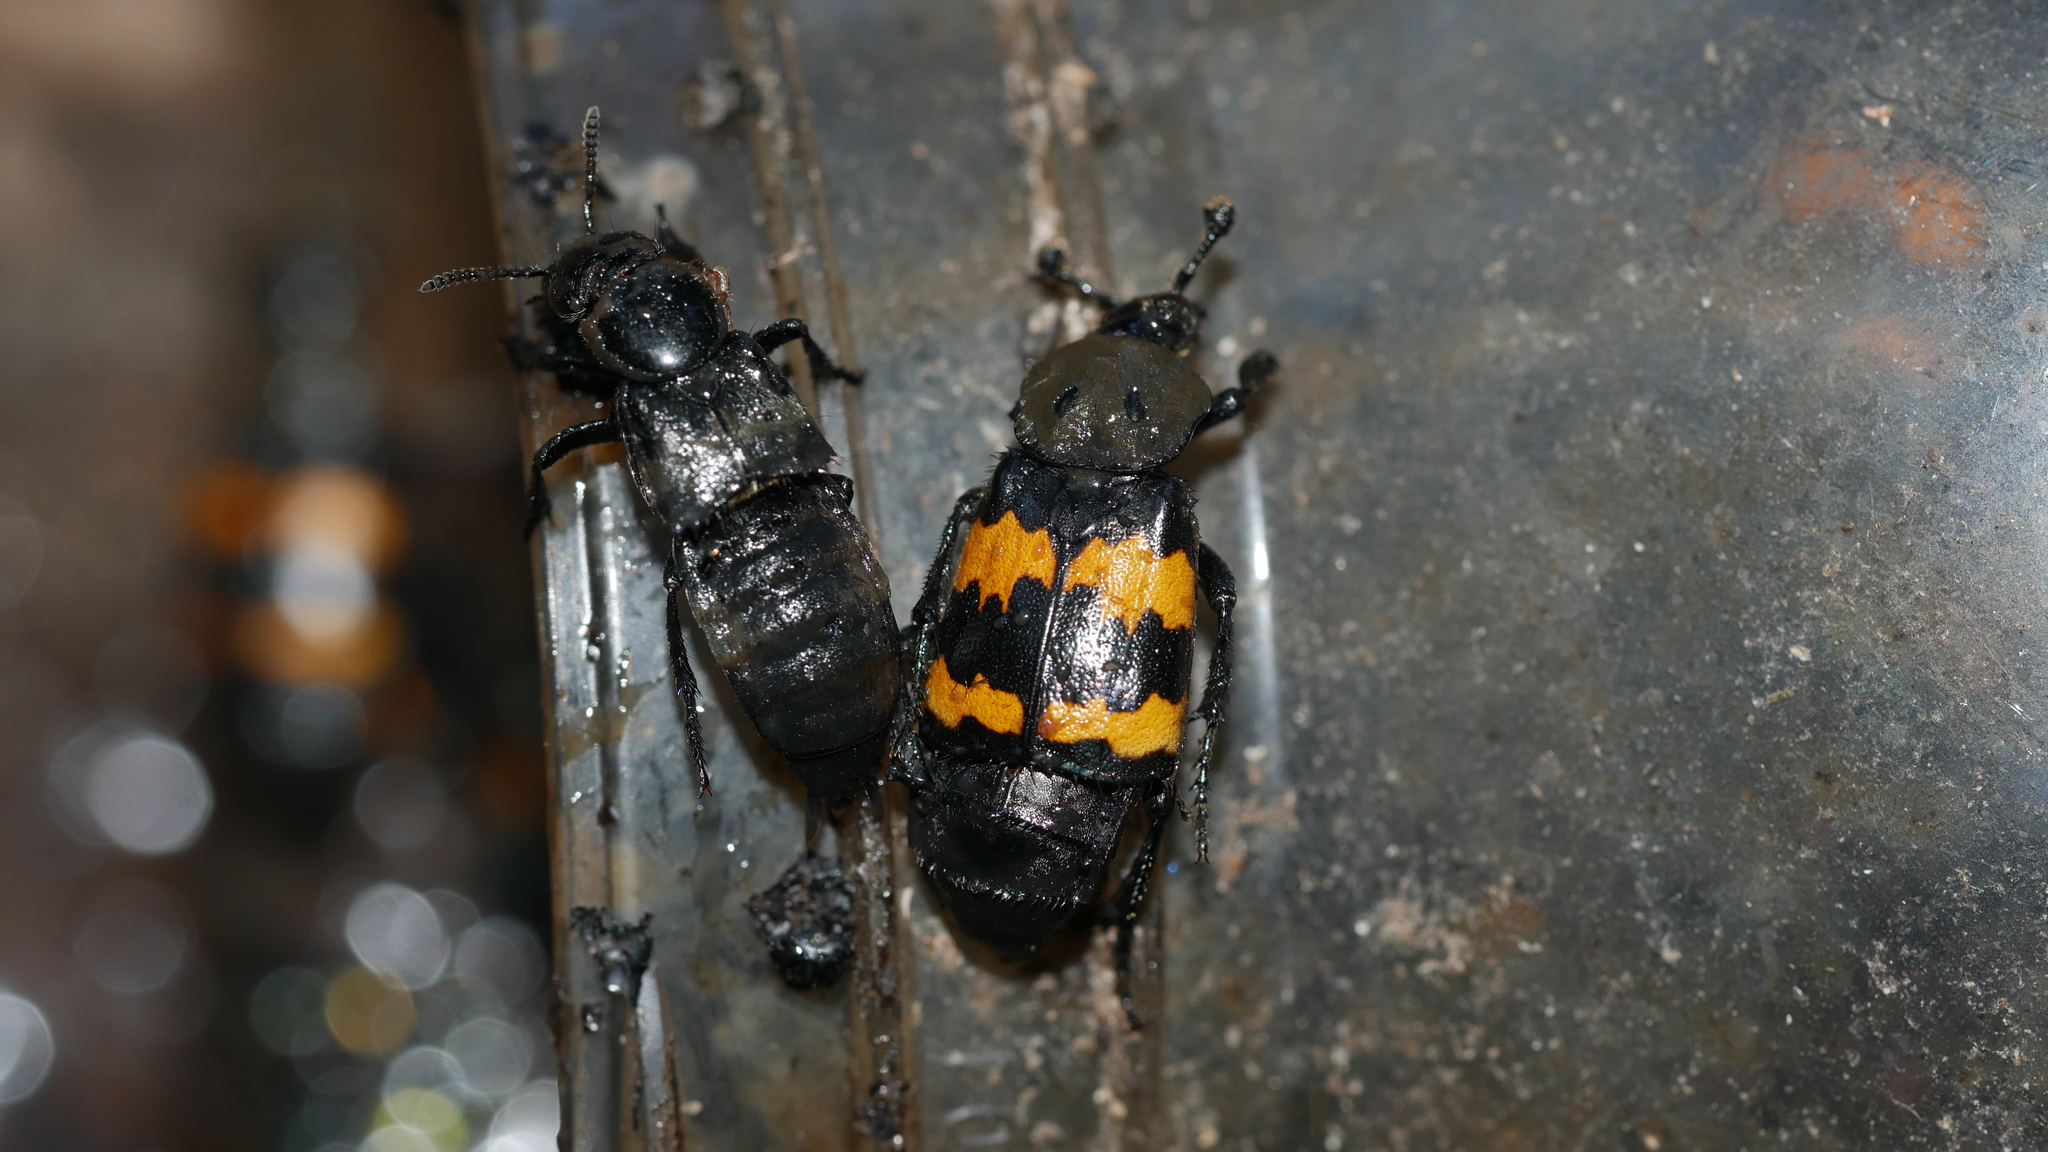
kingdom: Animalia
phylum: Arthropoda
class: Insecta
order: Coleoptera
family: Staphylinidae
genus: Nicrophorus
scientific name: Nicrophorus tomentosus
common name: Tomentose burying beetle
